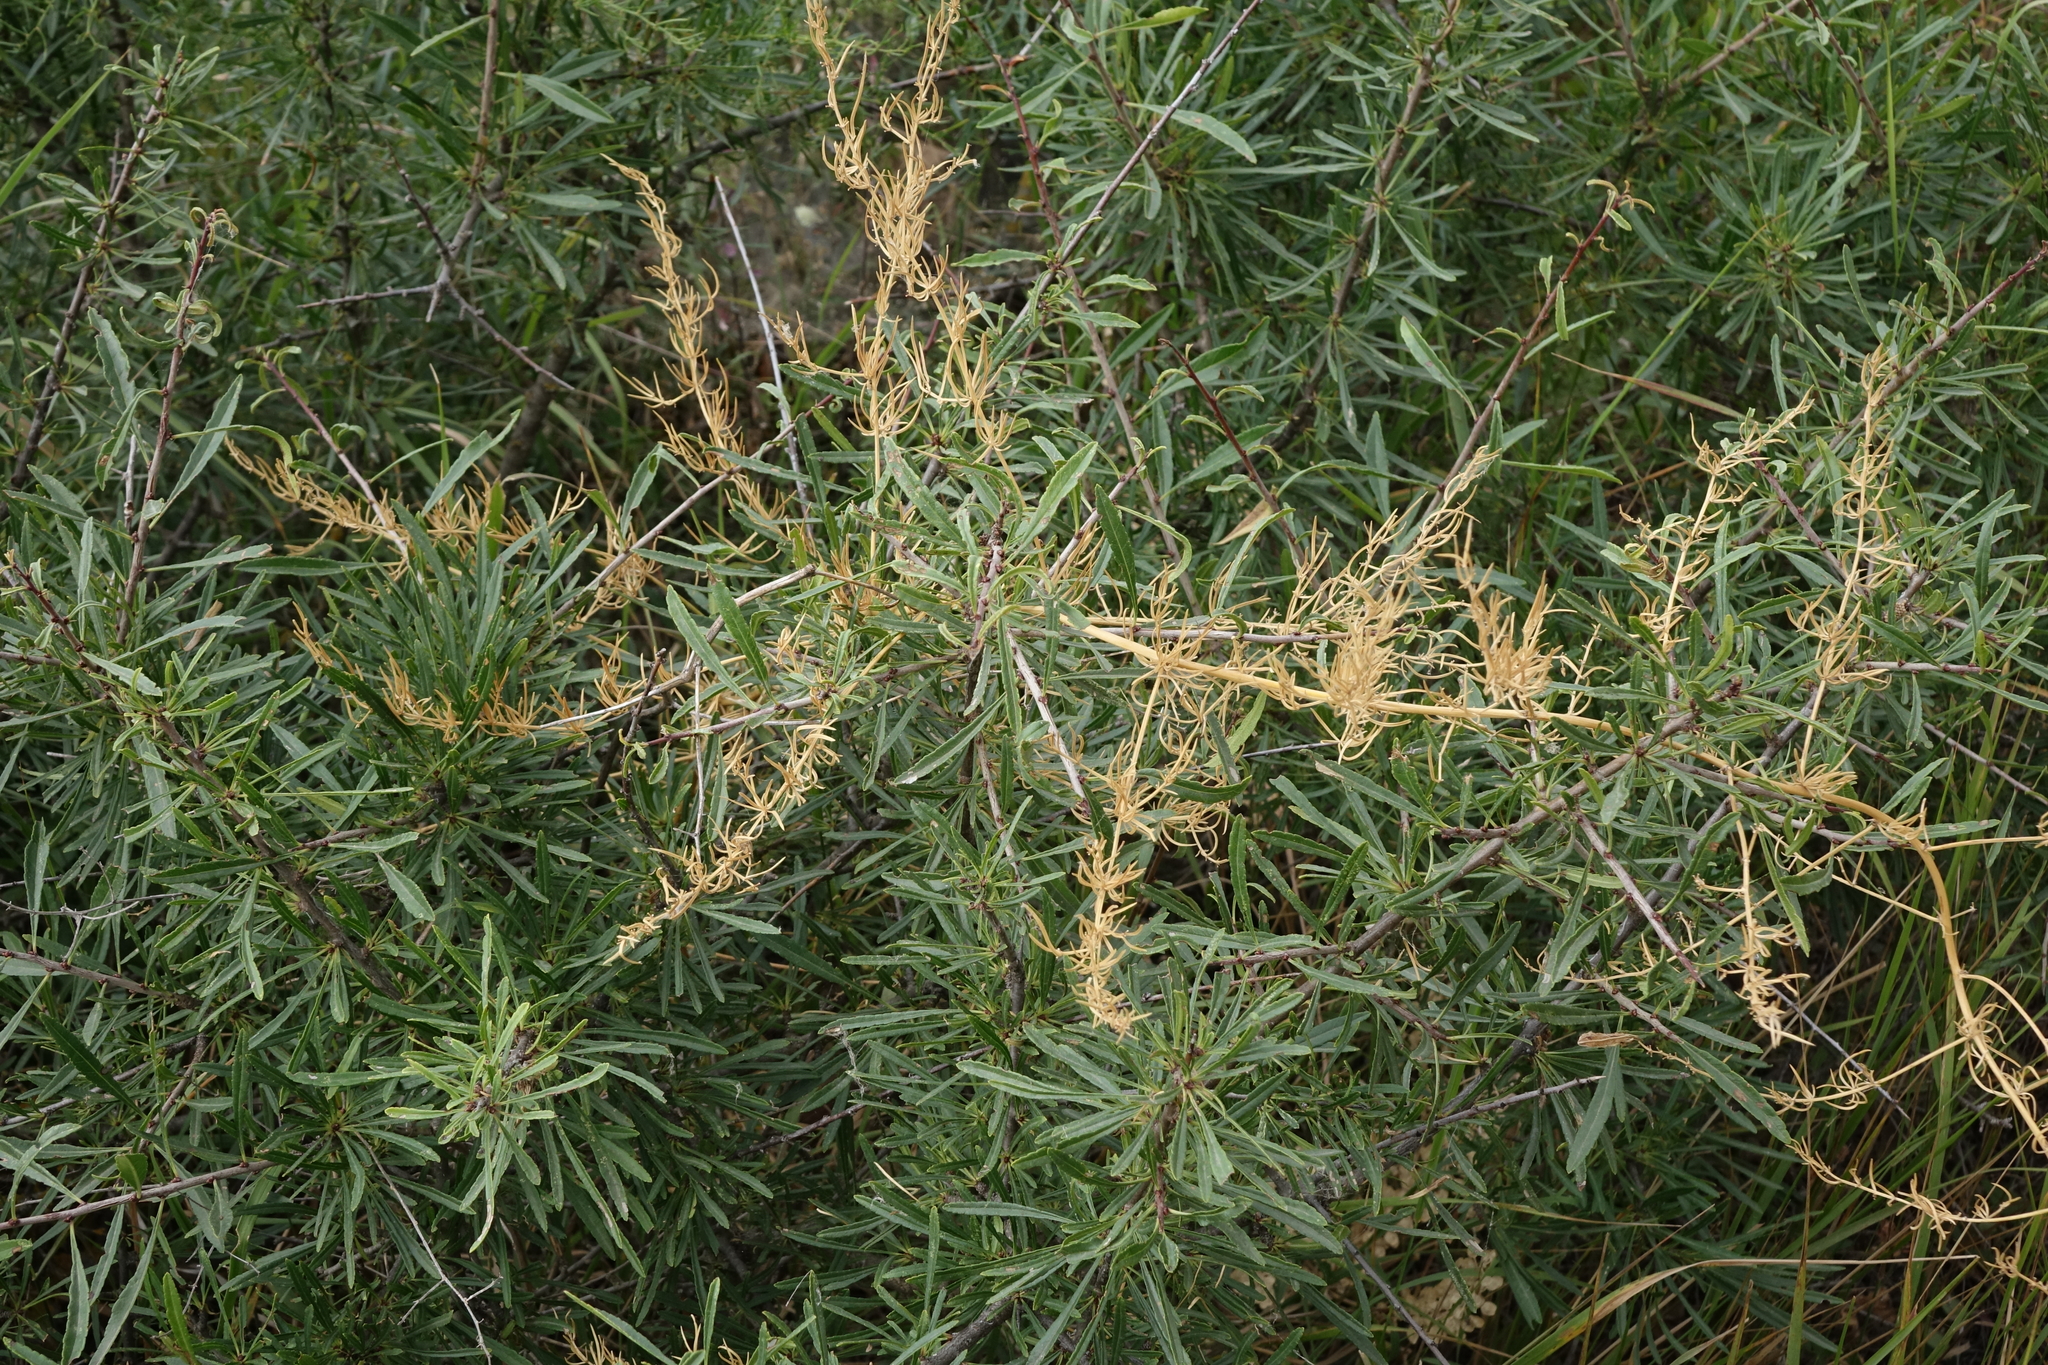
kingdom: Plantae
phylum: Tracheophyta
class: Liliopsida
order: Asparagales
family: Asparagaceae
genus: Asparagus
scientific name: Asparagus verticillatus
